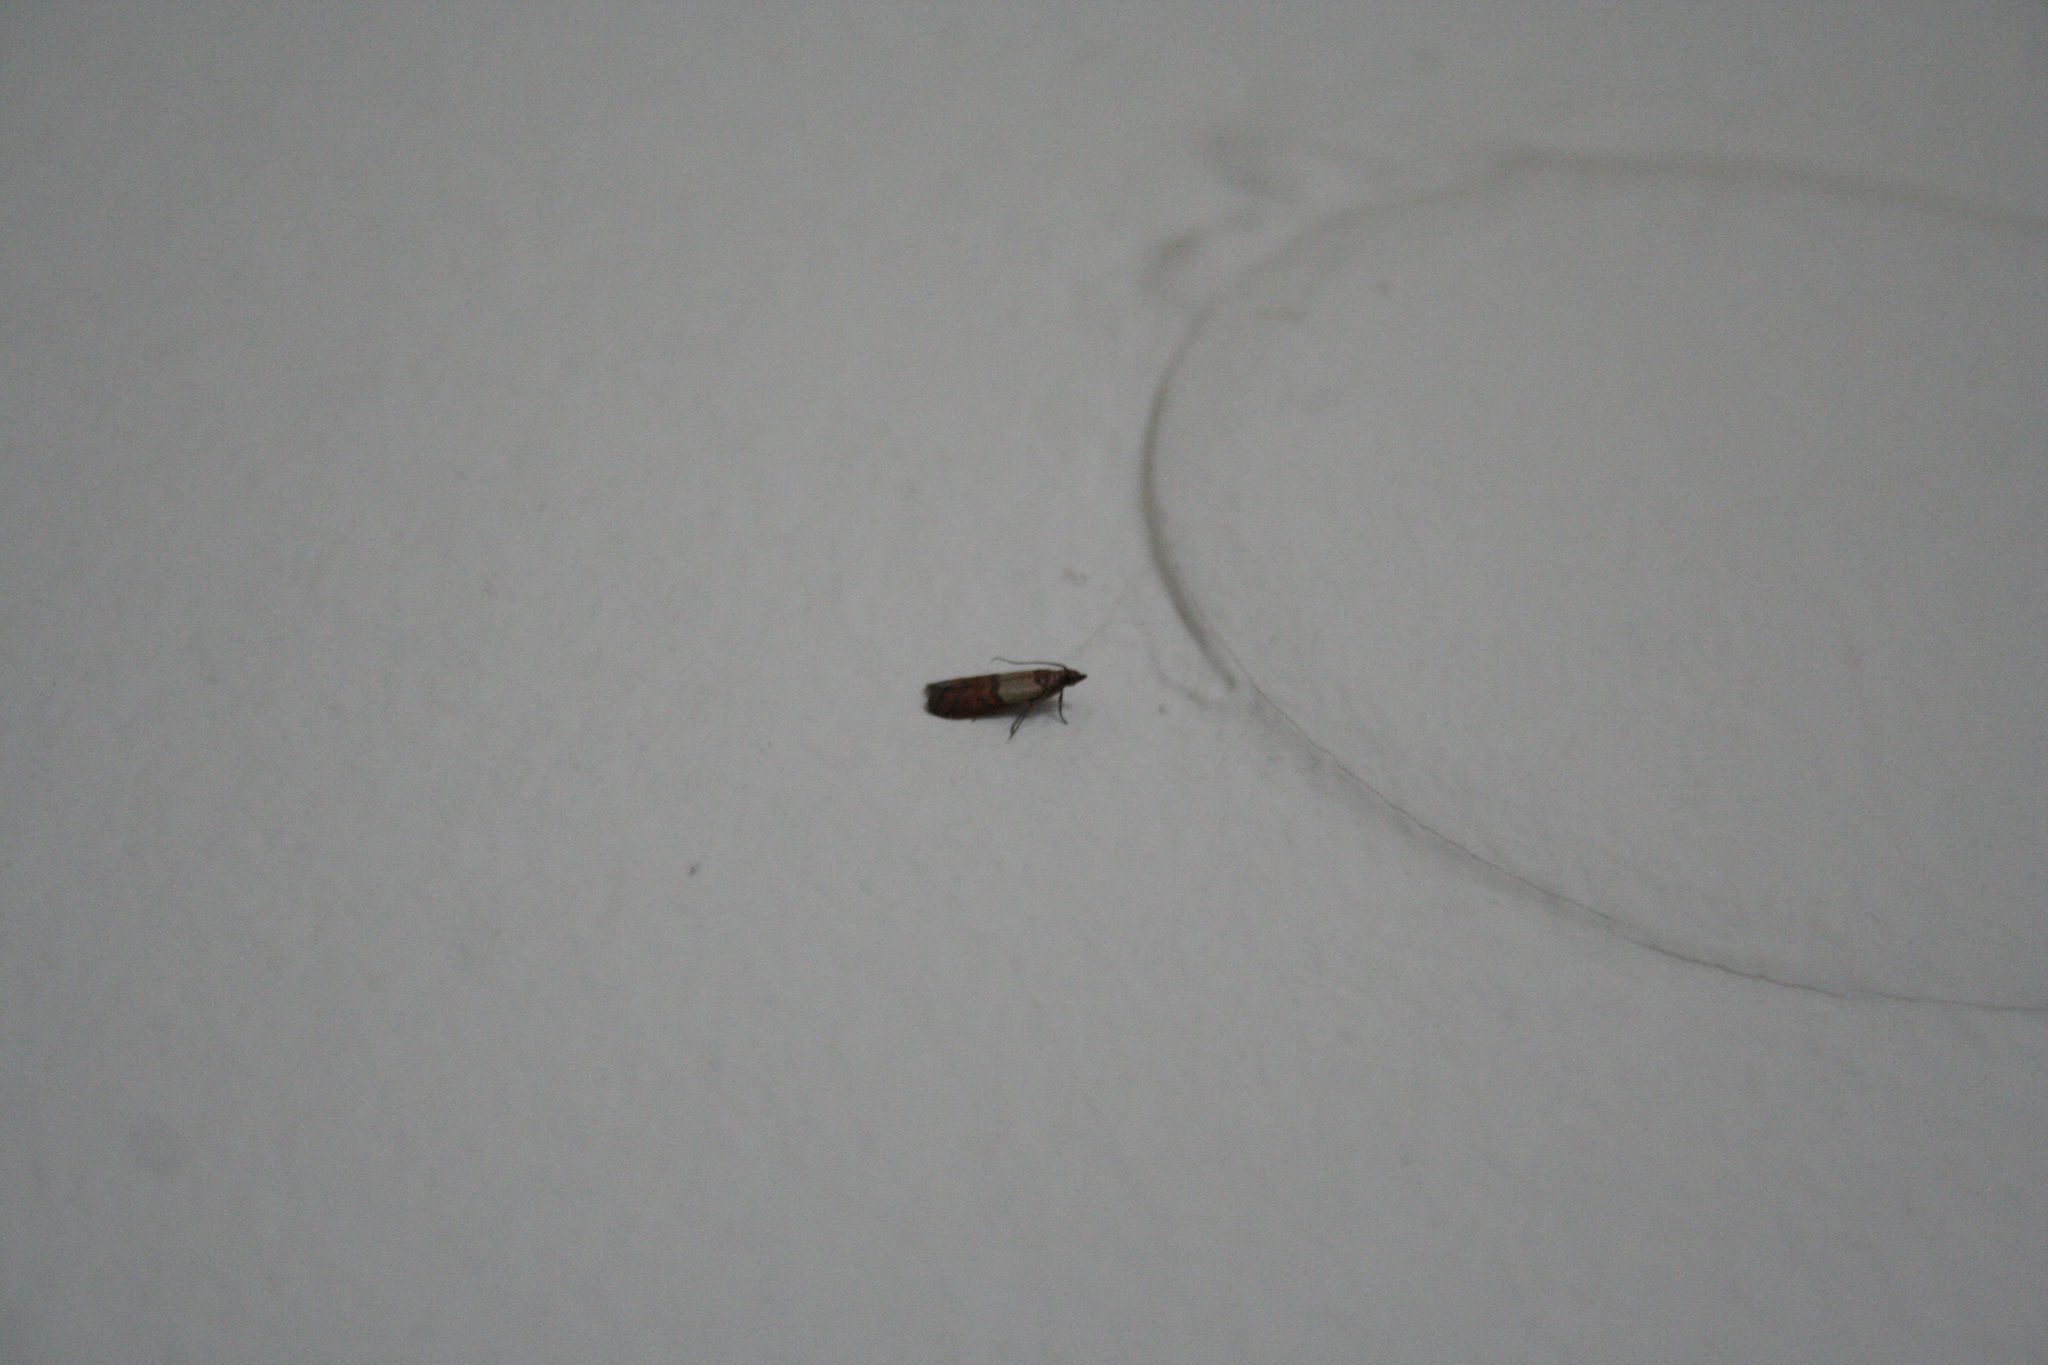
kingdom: Animalia
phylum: Arthropoda
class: Insecta
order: Lepidoptera
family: Pyralidae
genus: Plodia
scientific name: Plodia interpunctella
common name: Indian meal moth
